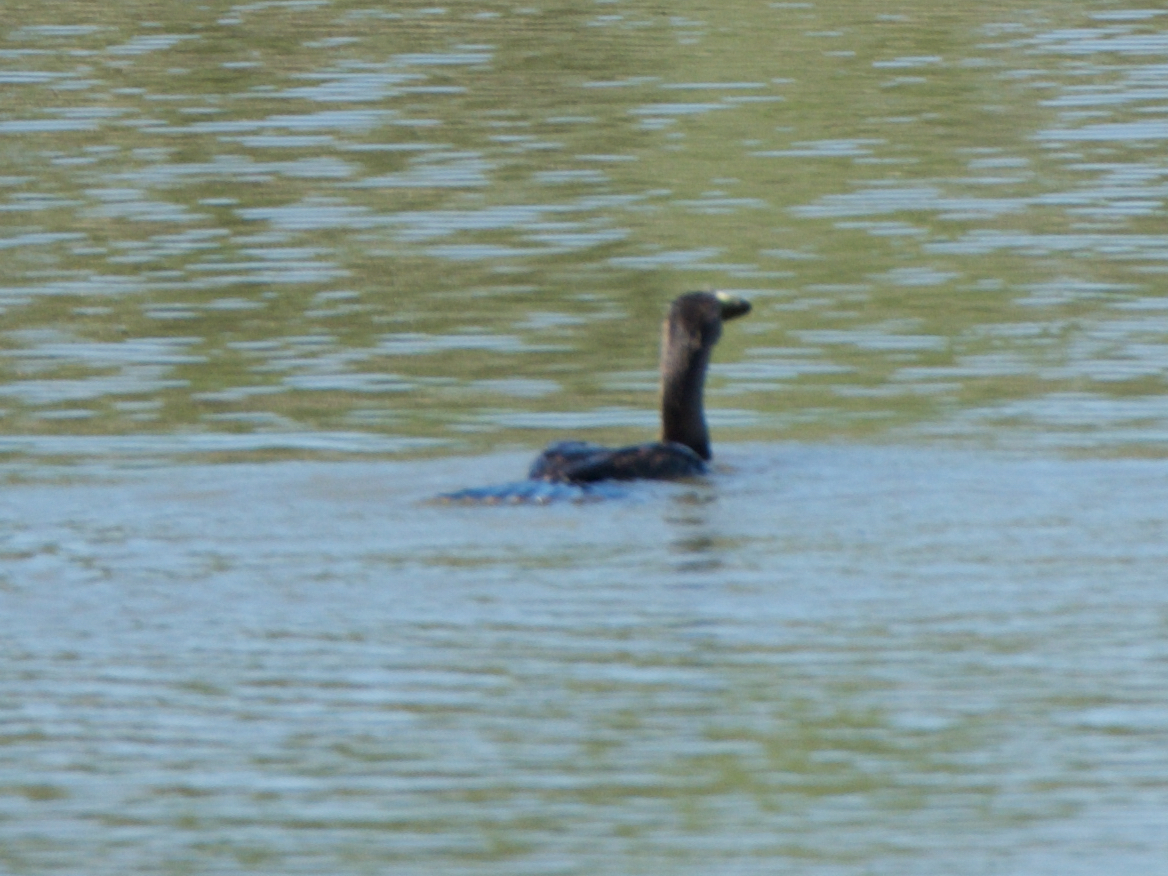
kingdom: Animalia
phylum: Chordata
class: Aves
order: Suliformes
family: Phalacrocoracidae
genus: Phalacrocorax
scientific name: Phalacrocorax auritus
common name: Double-crested cormorant
